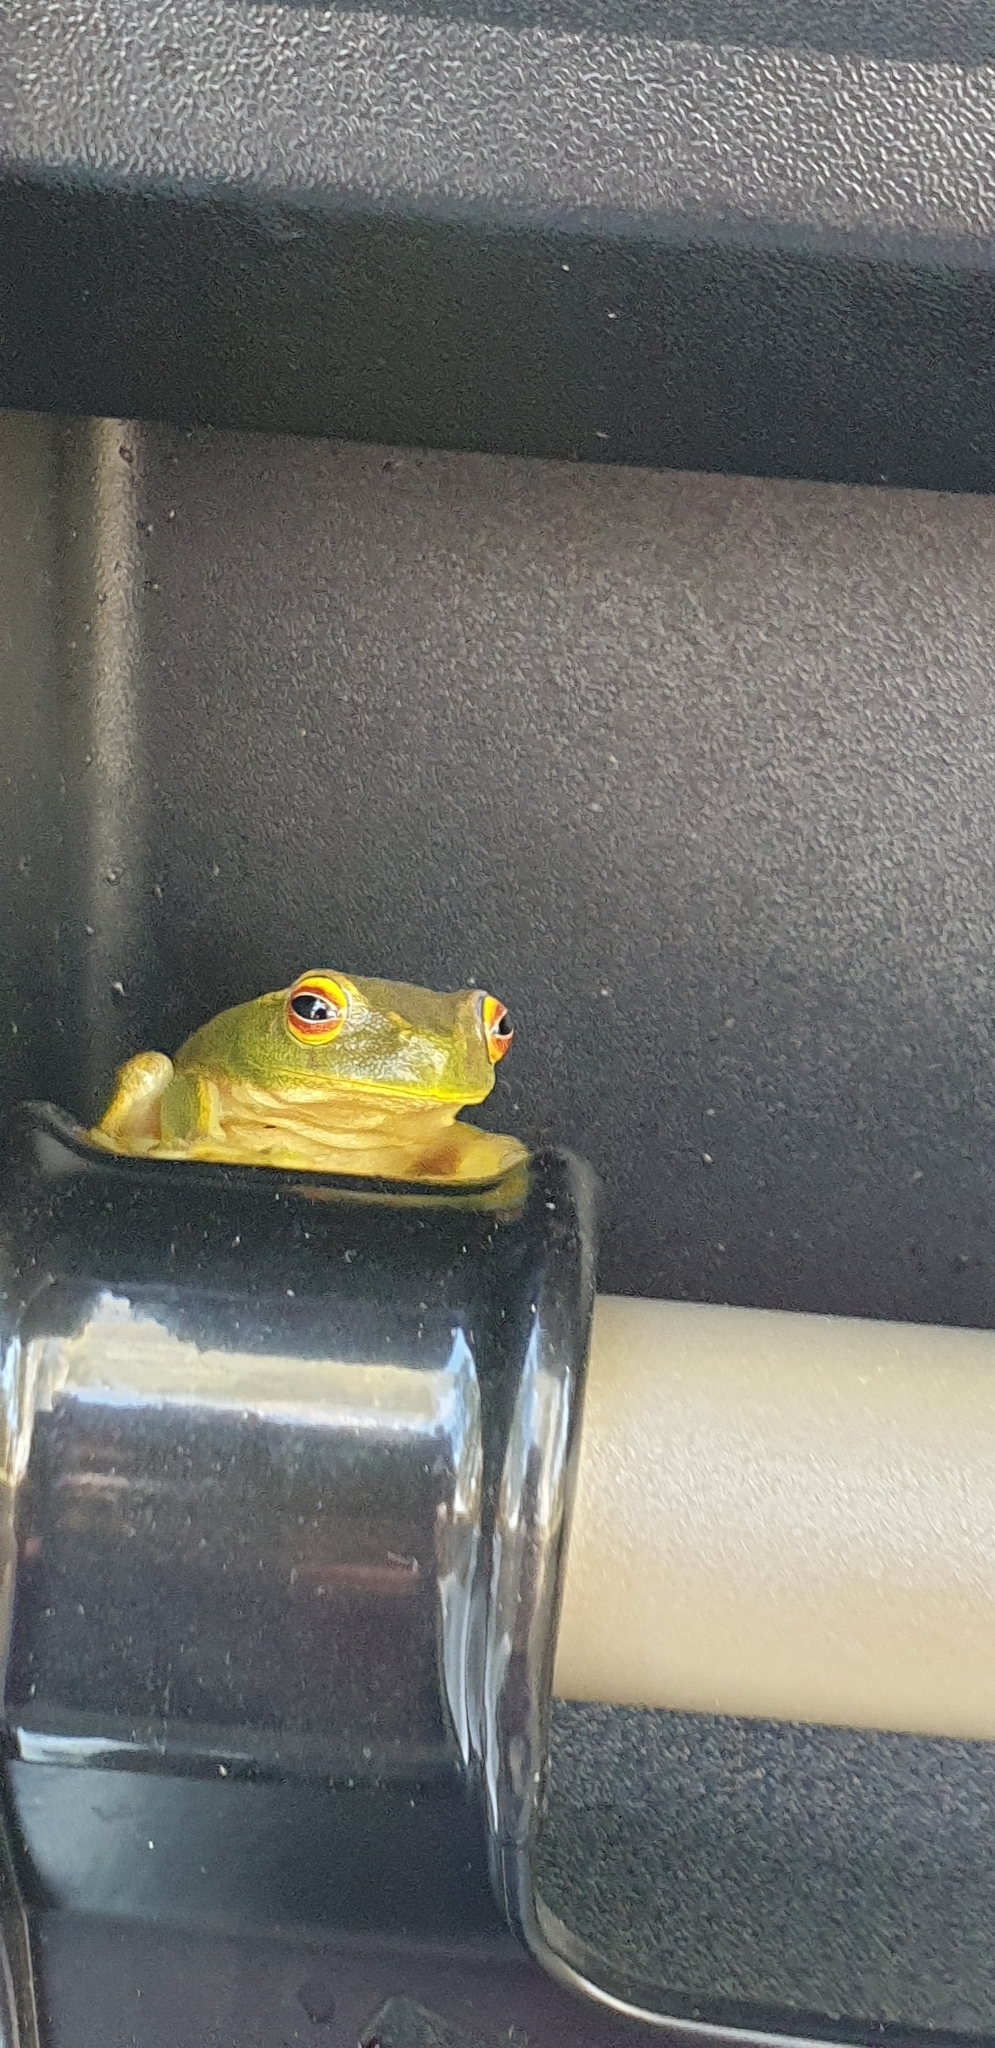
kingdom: Animalia
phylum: Chordata
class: Amphibia
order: Anura
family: Pelodryadidae
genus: Ranoidea
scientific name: Ranoidea gracilenta
